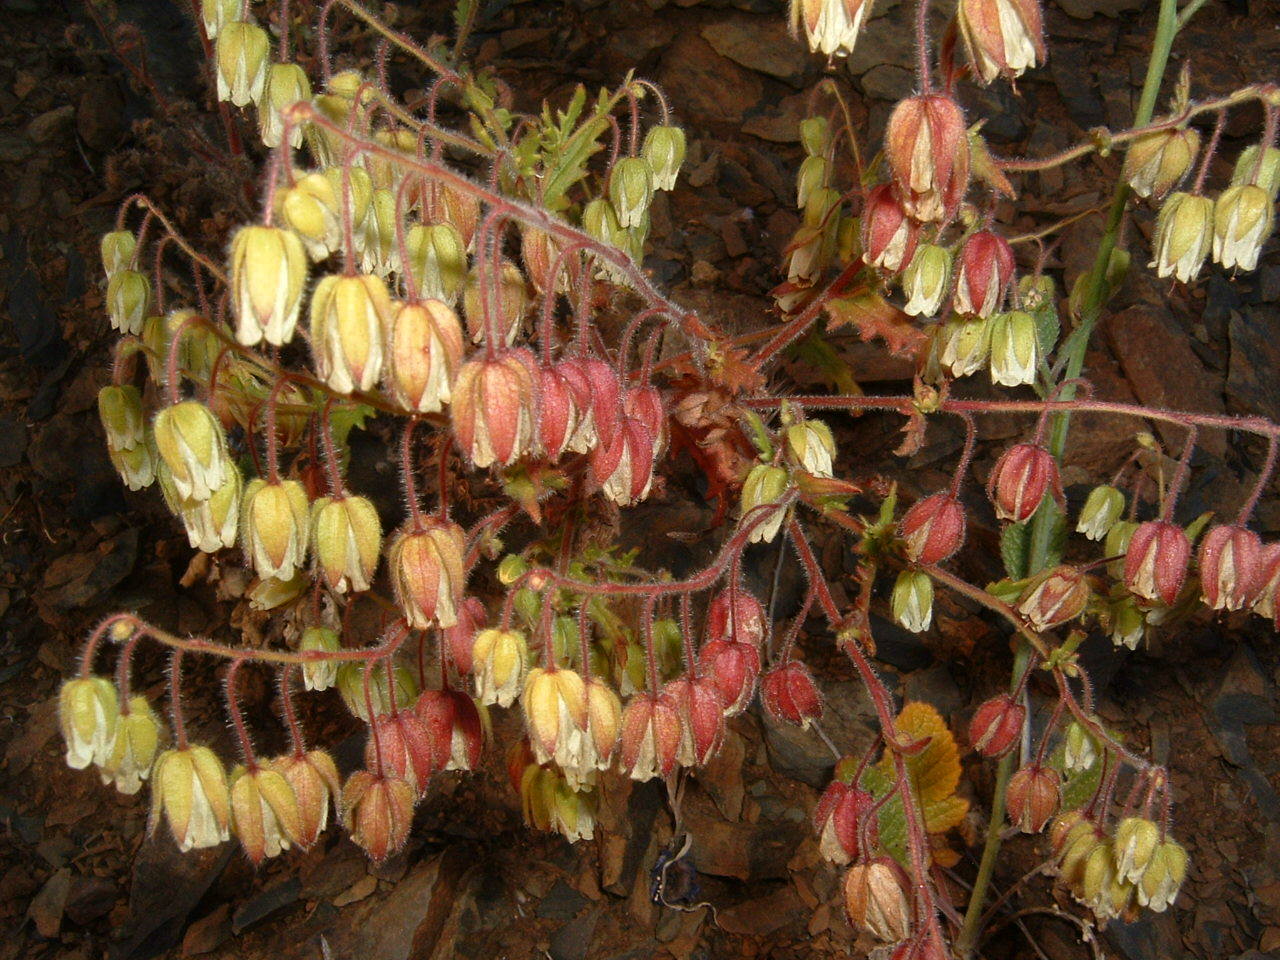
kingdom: Plantae
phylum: Tracheophyta
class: Magnoliopsida
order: Boraginales
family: Hydrophyllaceae
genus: Emmenanthe
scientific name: Emmenanthe penduliflora
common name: Whispering-bells
